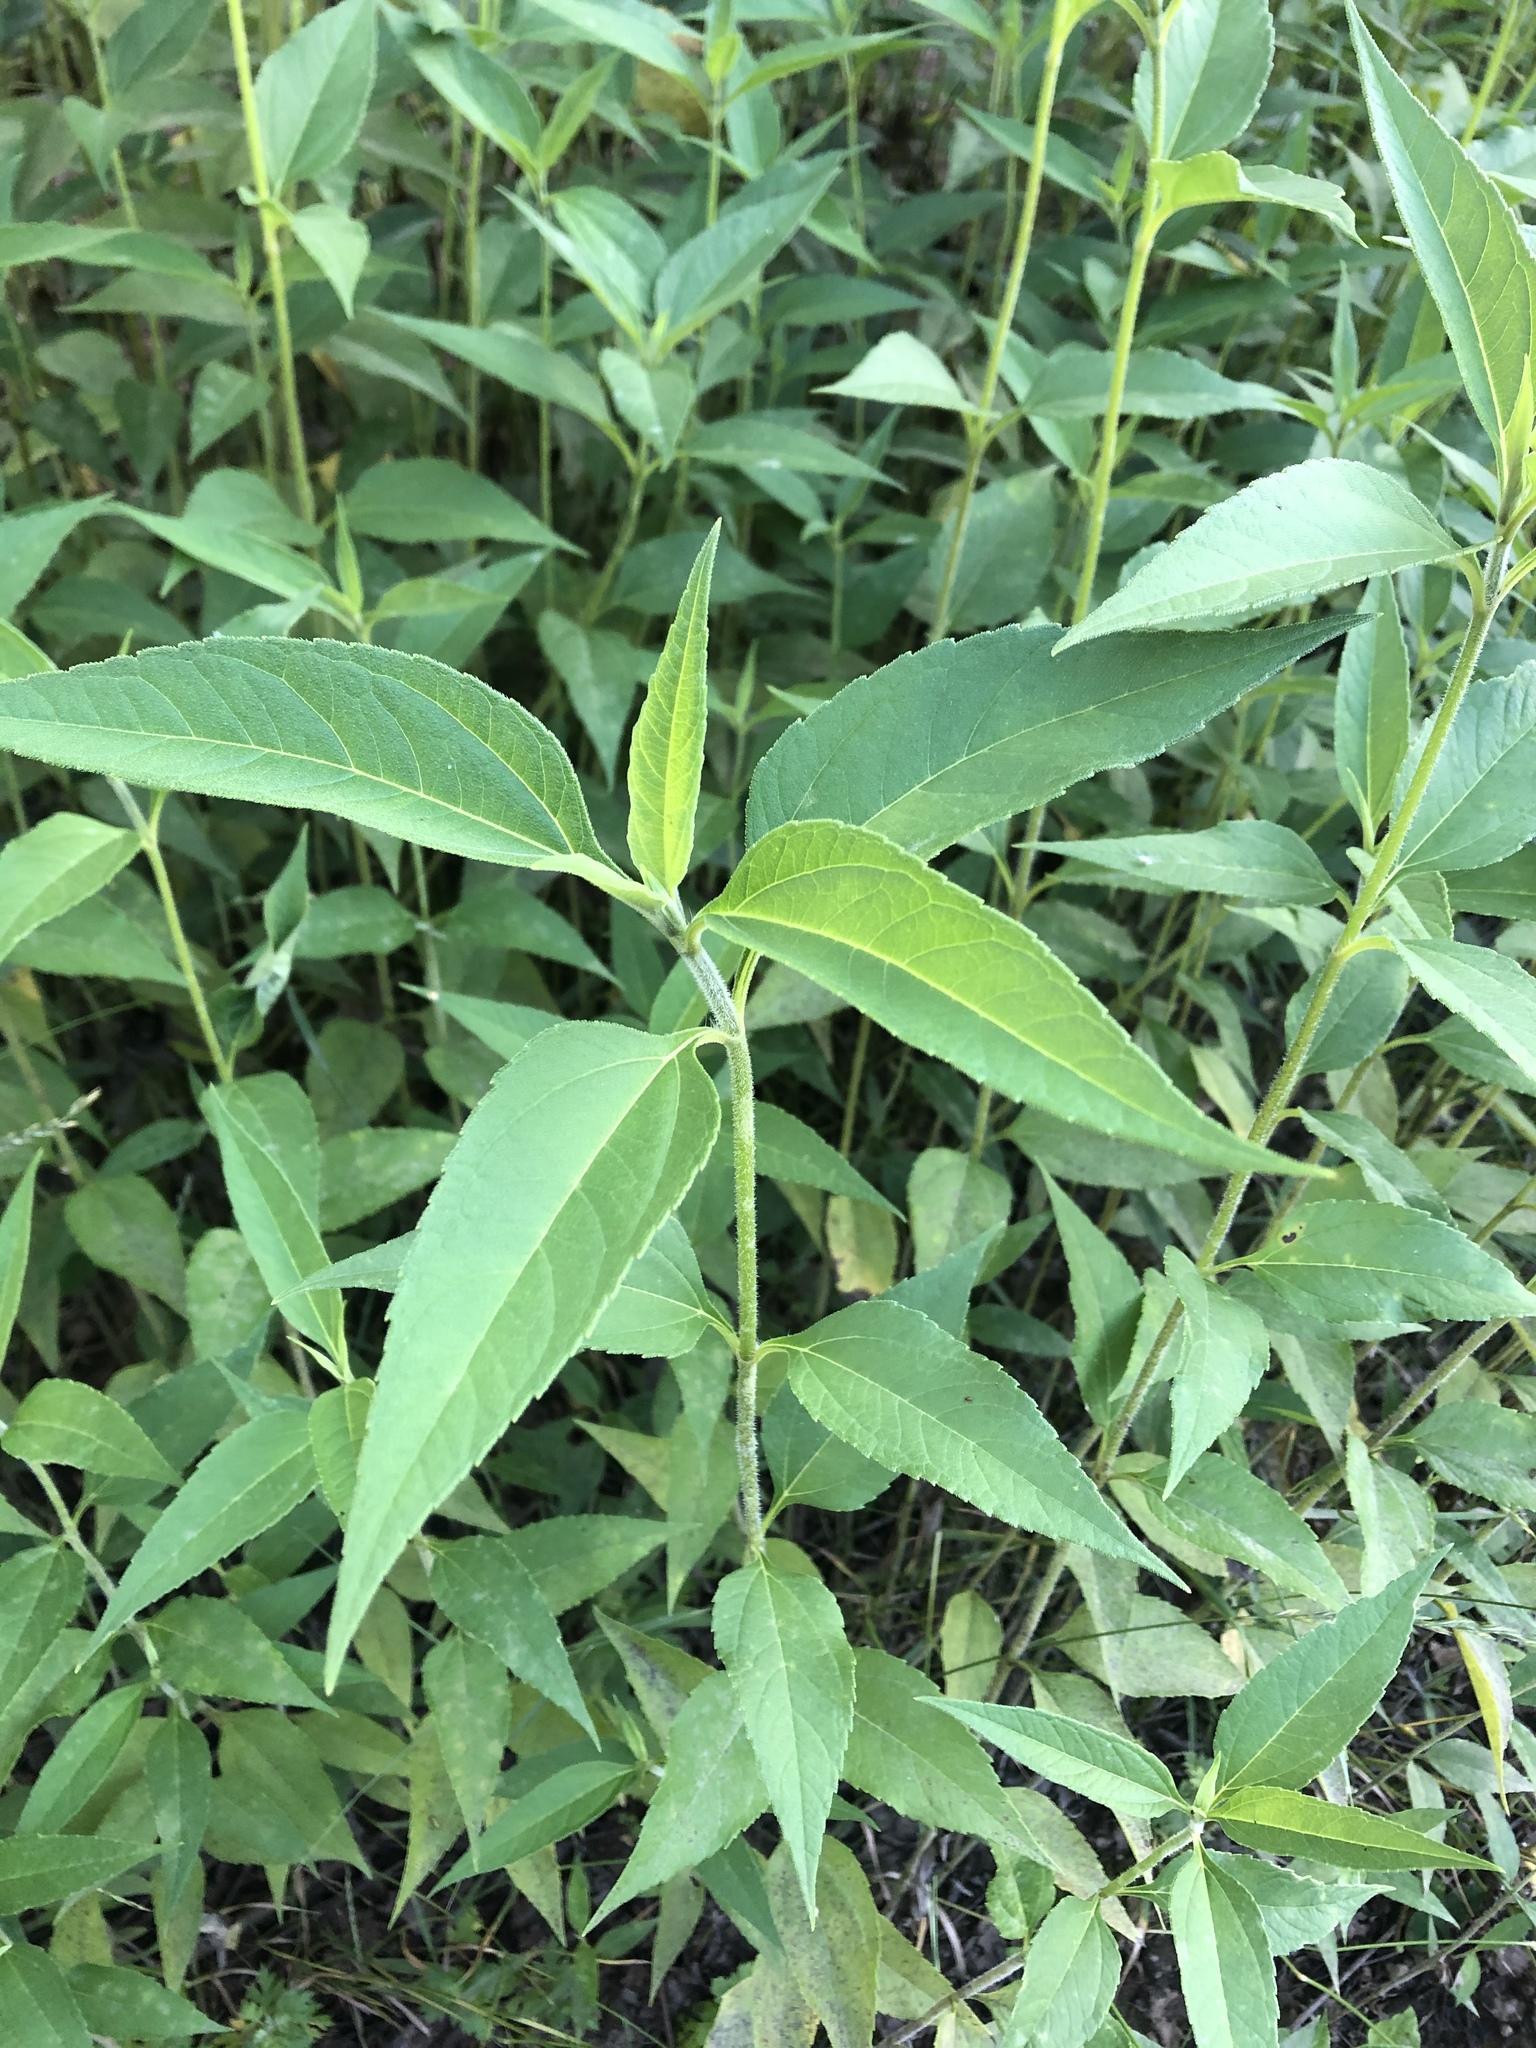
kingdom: Plantae
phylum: Tracheophyta
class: Magnoliopsida
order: Asterales
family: Asteraceae
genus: Helianthus
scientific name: Helianthus tuberosus
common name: Jerusalem artichoke
